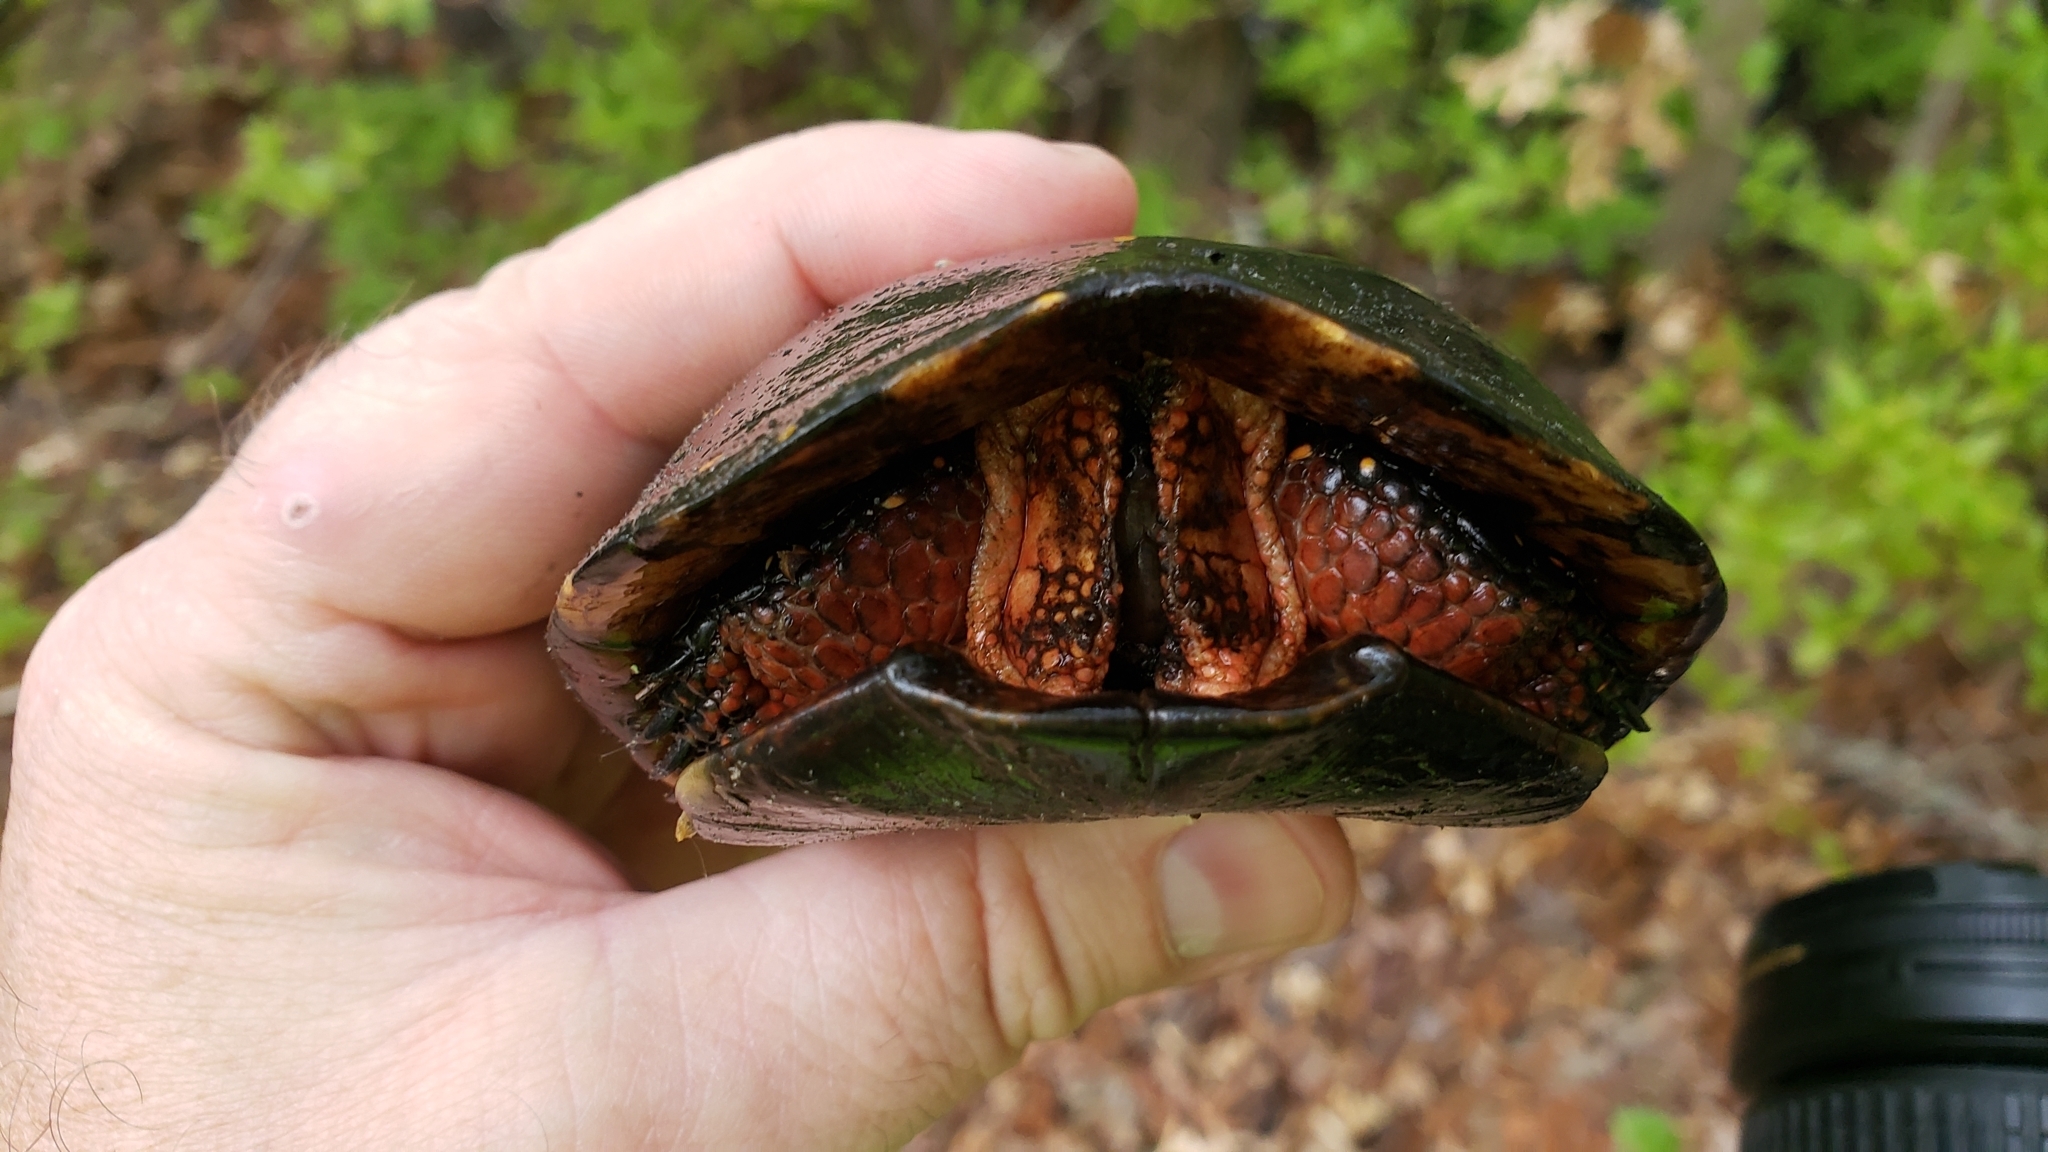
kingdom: Animalia
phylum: Chordata
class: Testudines
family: Emydidae
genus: Clemmys
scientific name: Clemmys guttata
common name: Spotted turtle
